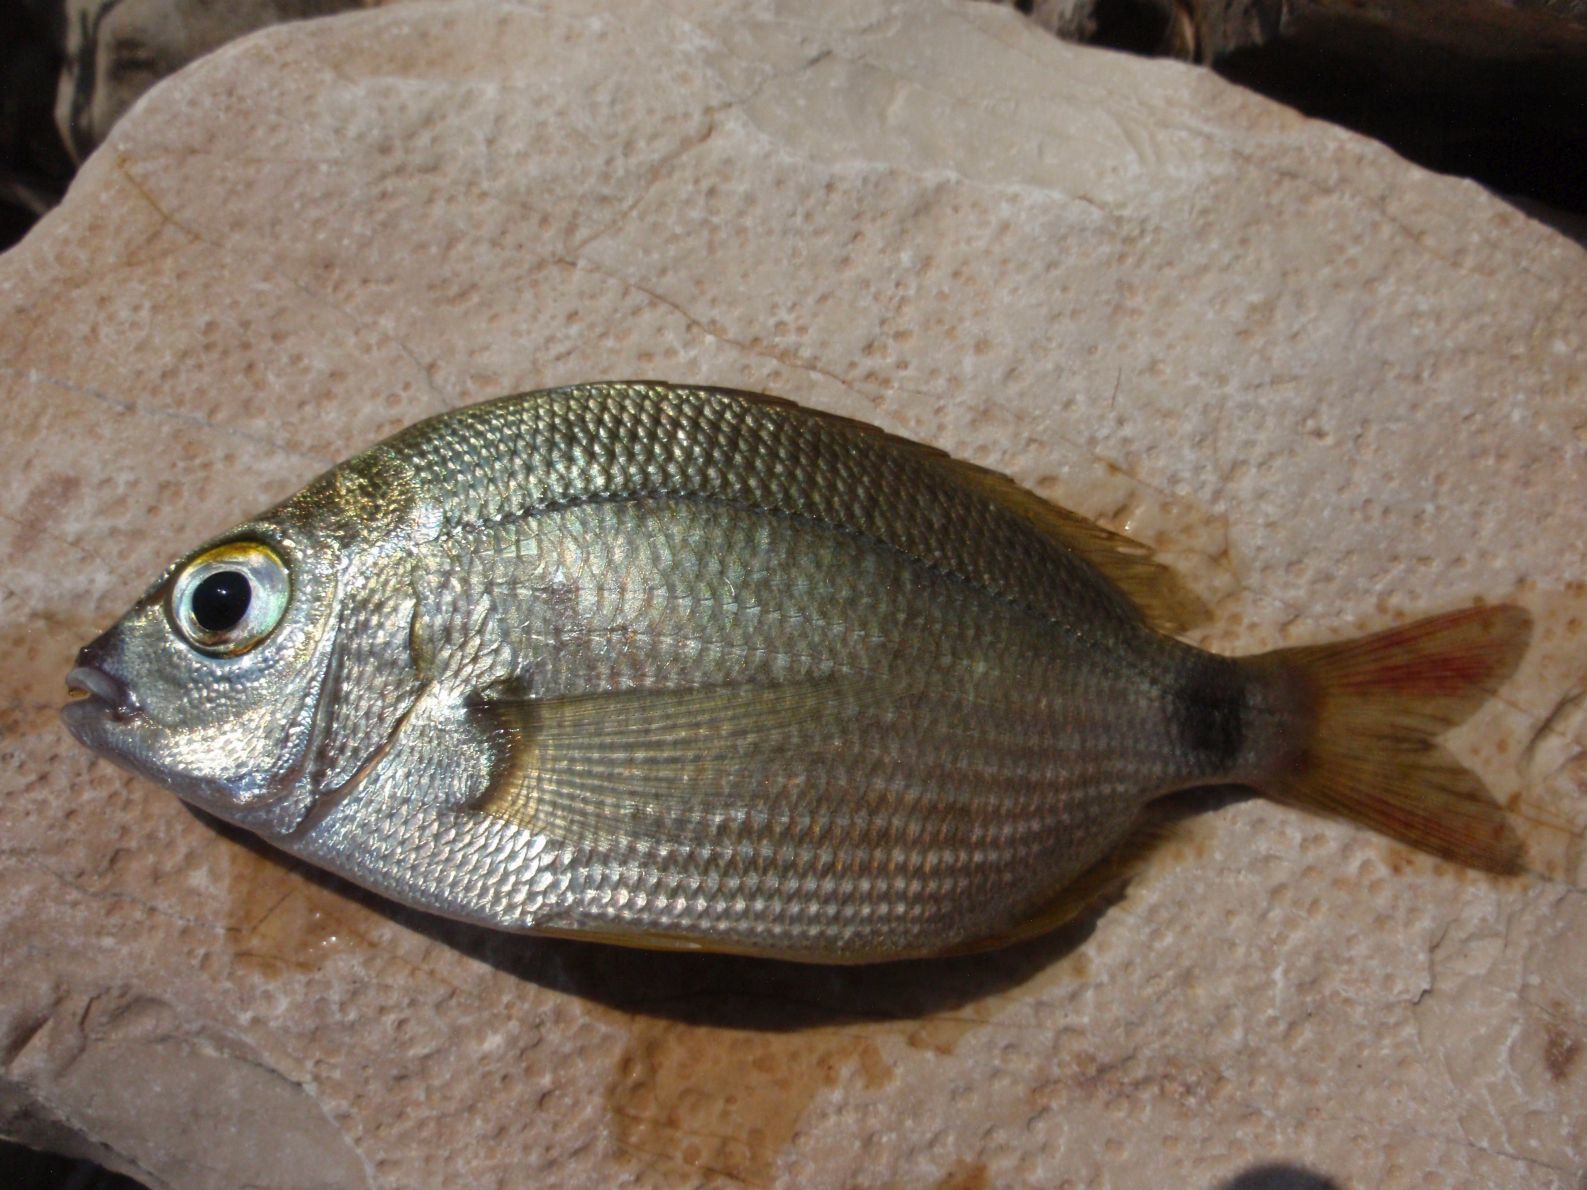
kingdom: Animalia
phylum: Chordata
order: Perciformes
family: Sparidae
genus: Diplodus
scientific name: Diplodus annularis
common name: Annular seabream
